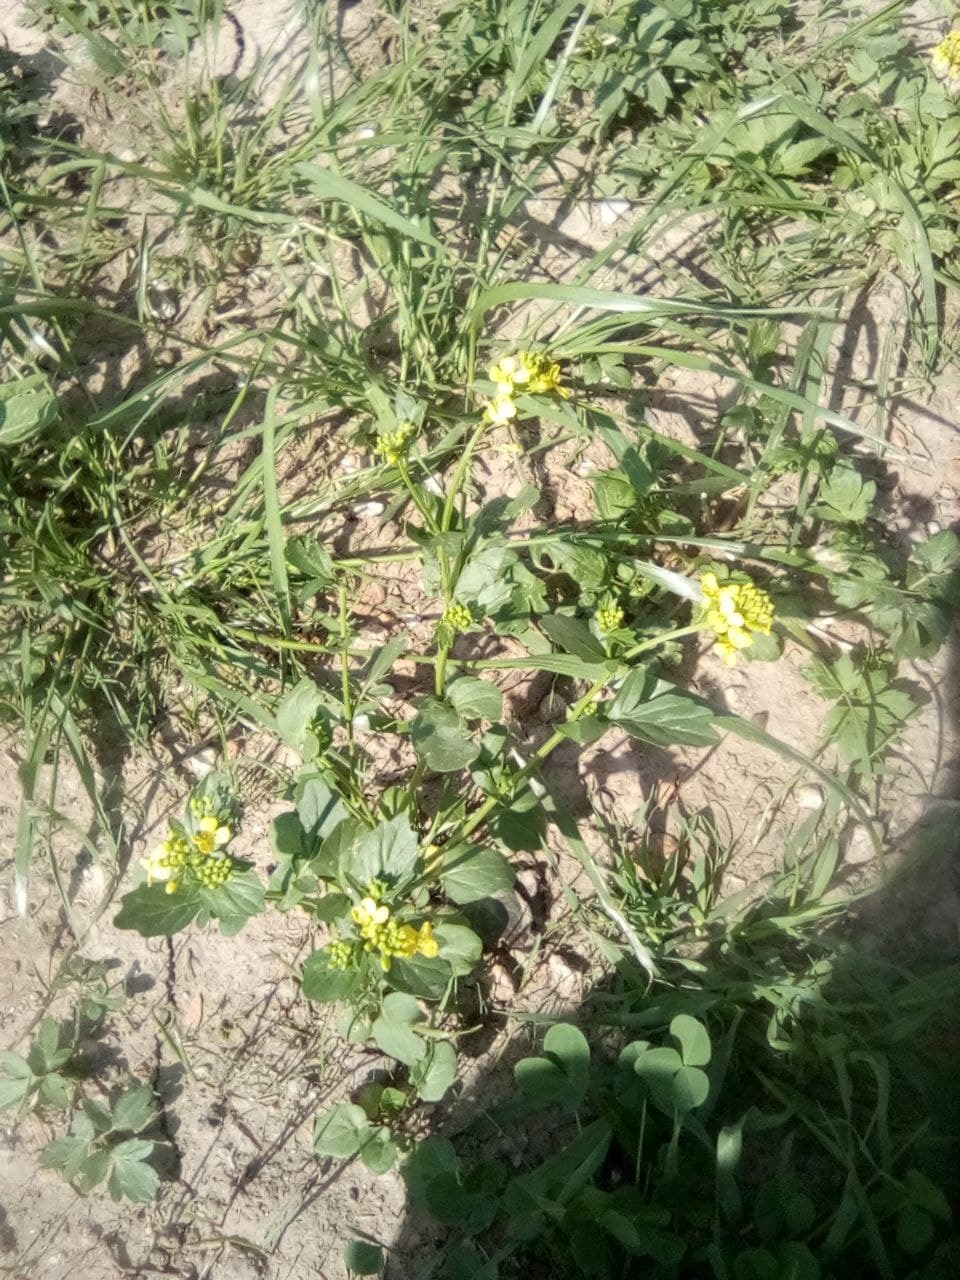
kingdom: Plantae
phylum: Tracheophyta
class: Magnoliopsida
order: Brassicales
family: Brassicaceae
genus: Barbarea
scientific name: Barbarea vulgaris
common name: Cressy-greens
